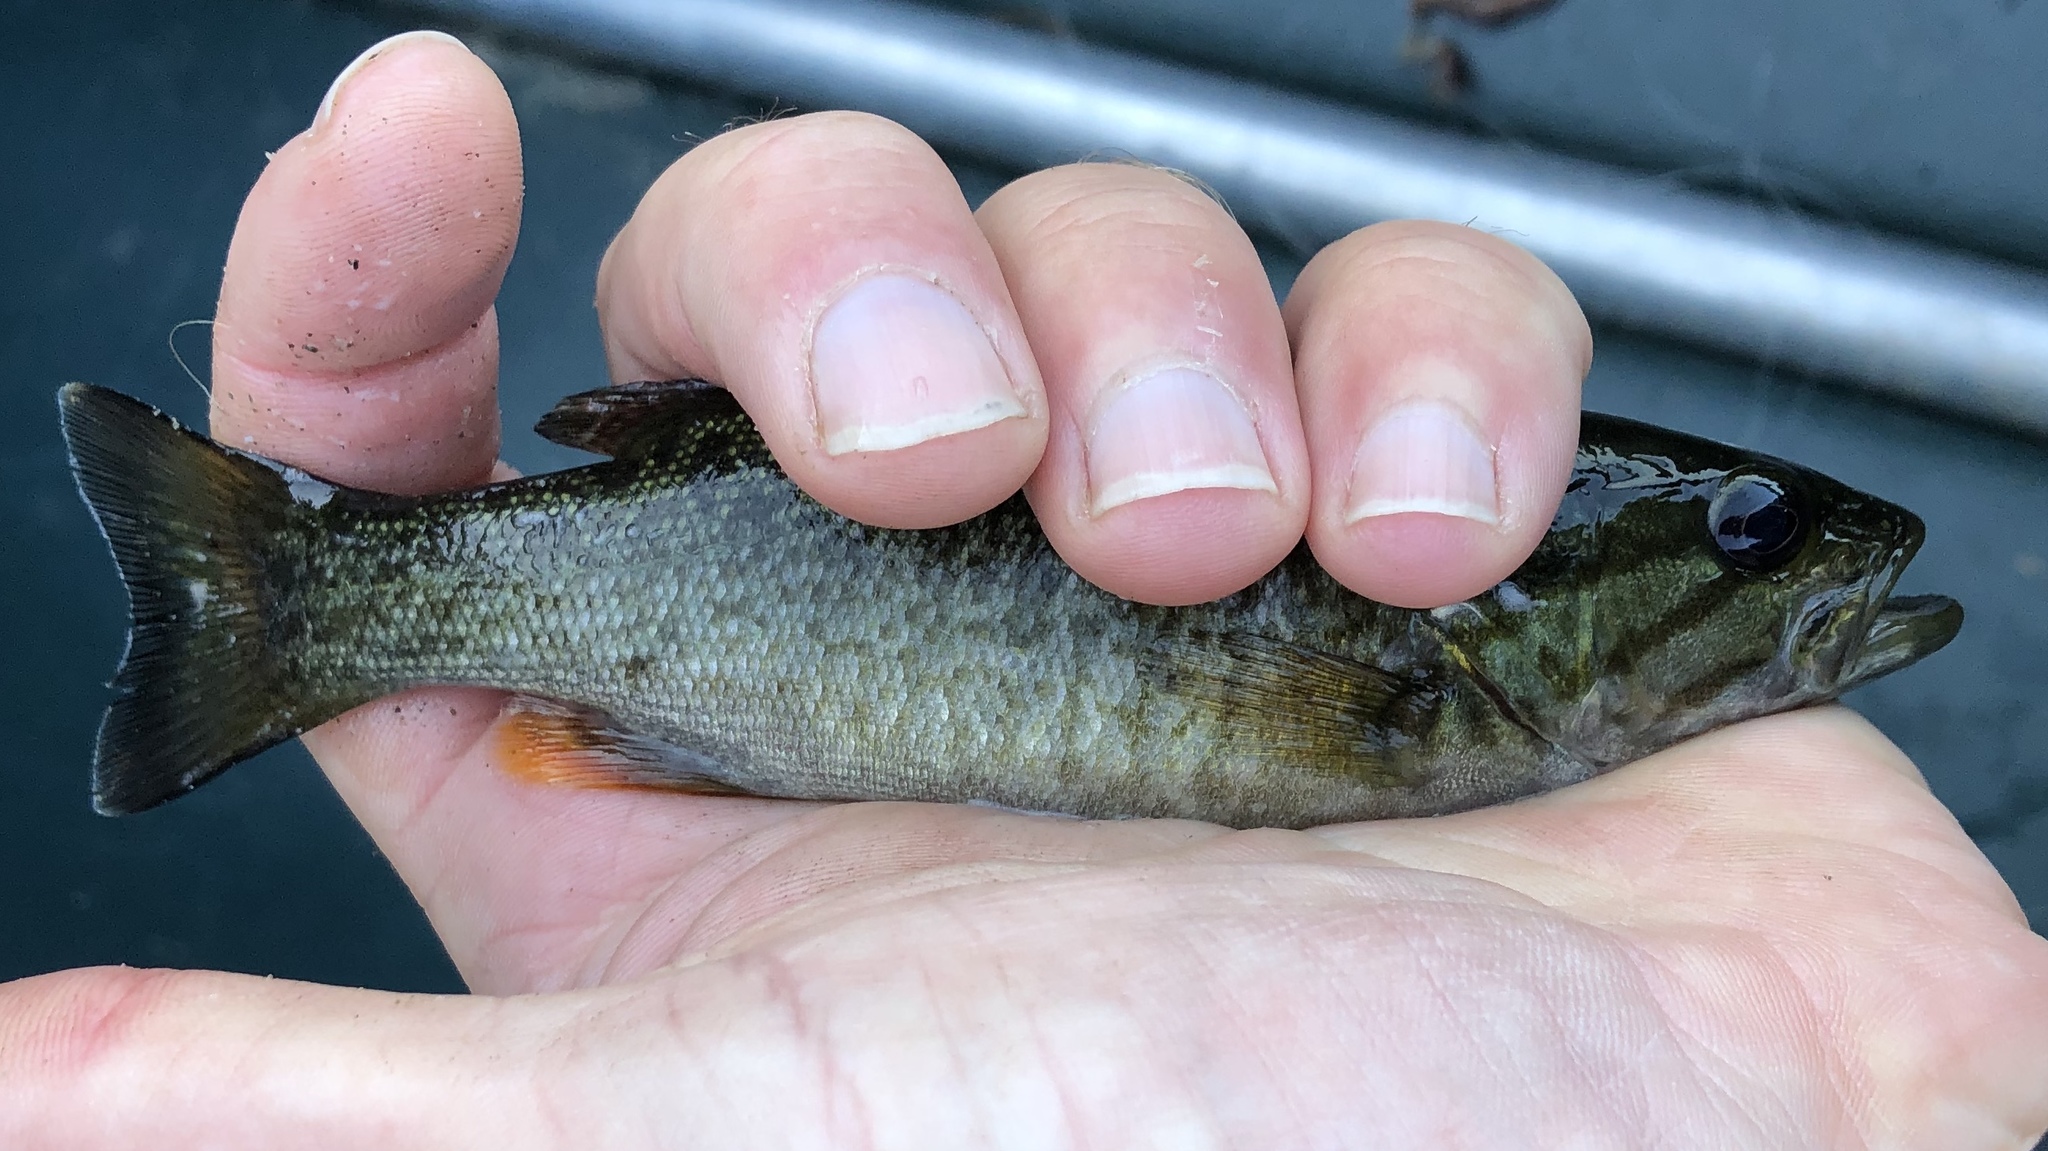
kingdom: Animalia
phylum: Chordata
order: Perciformes
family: Centrarchidae
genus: Micropterus
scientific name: Micropterus dolomieu
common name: Smallmouth bass
